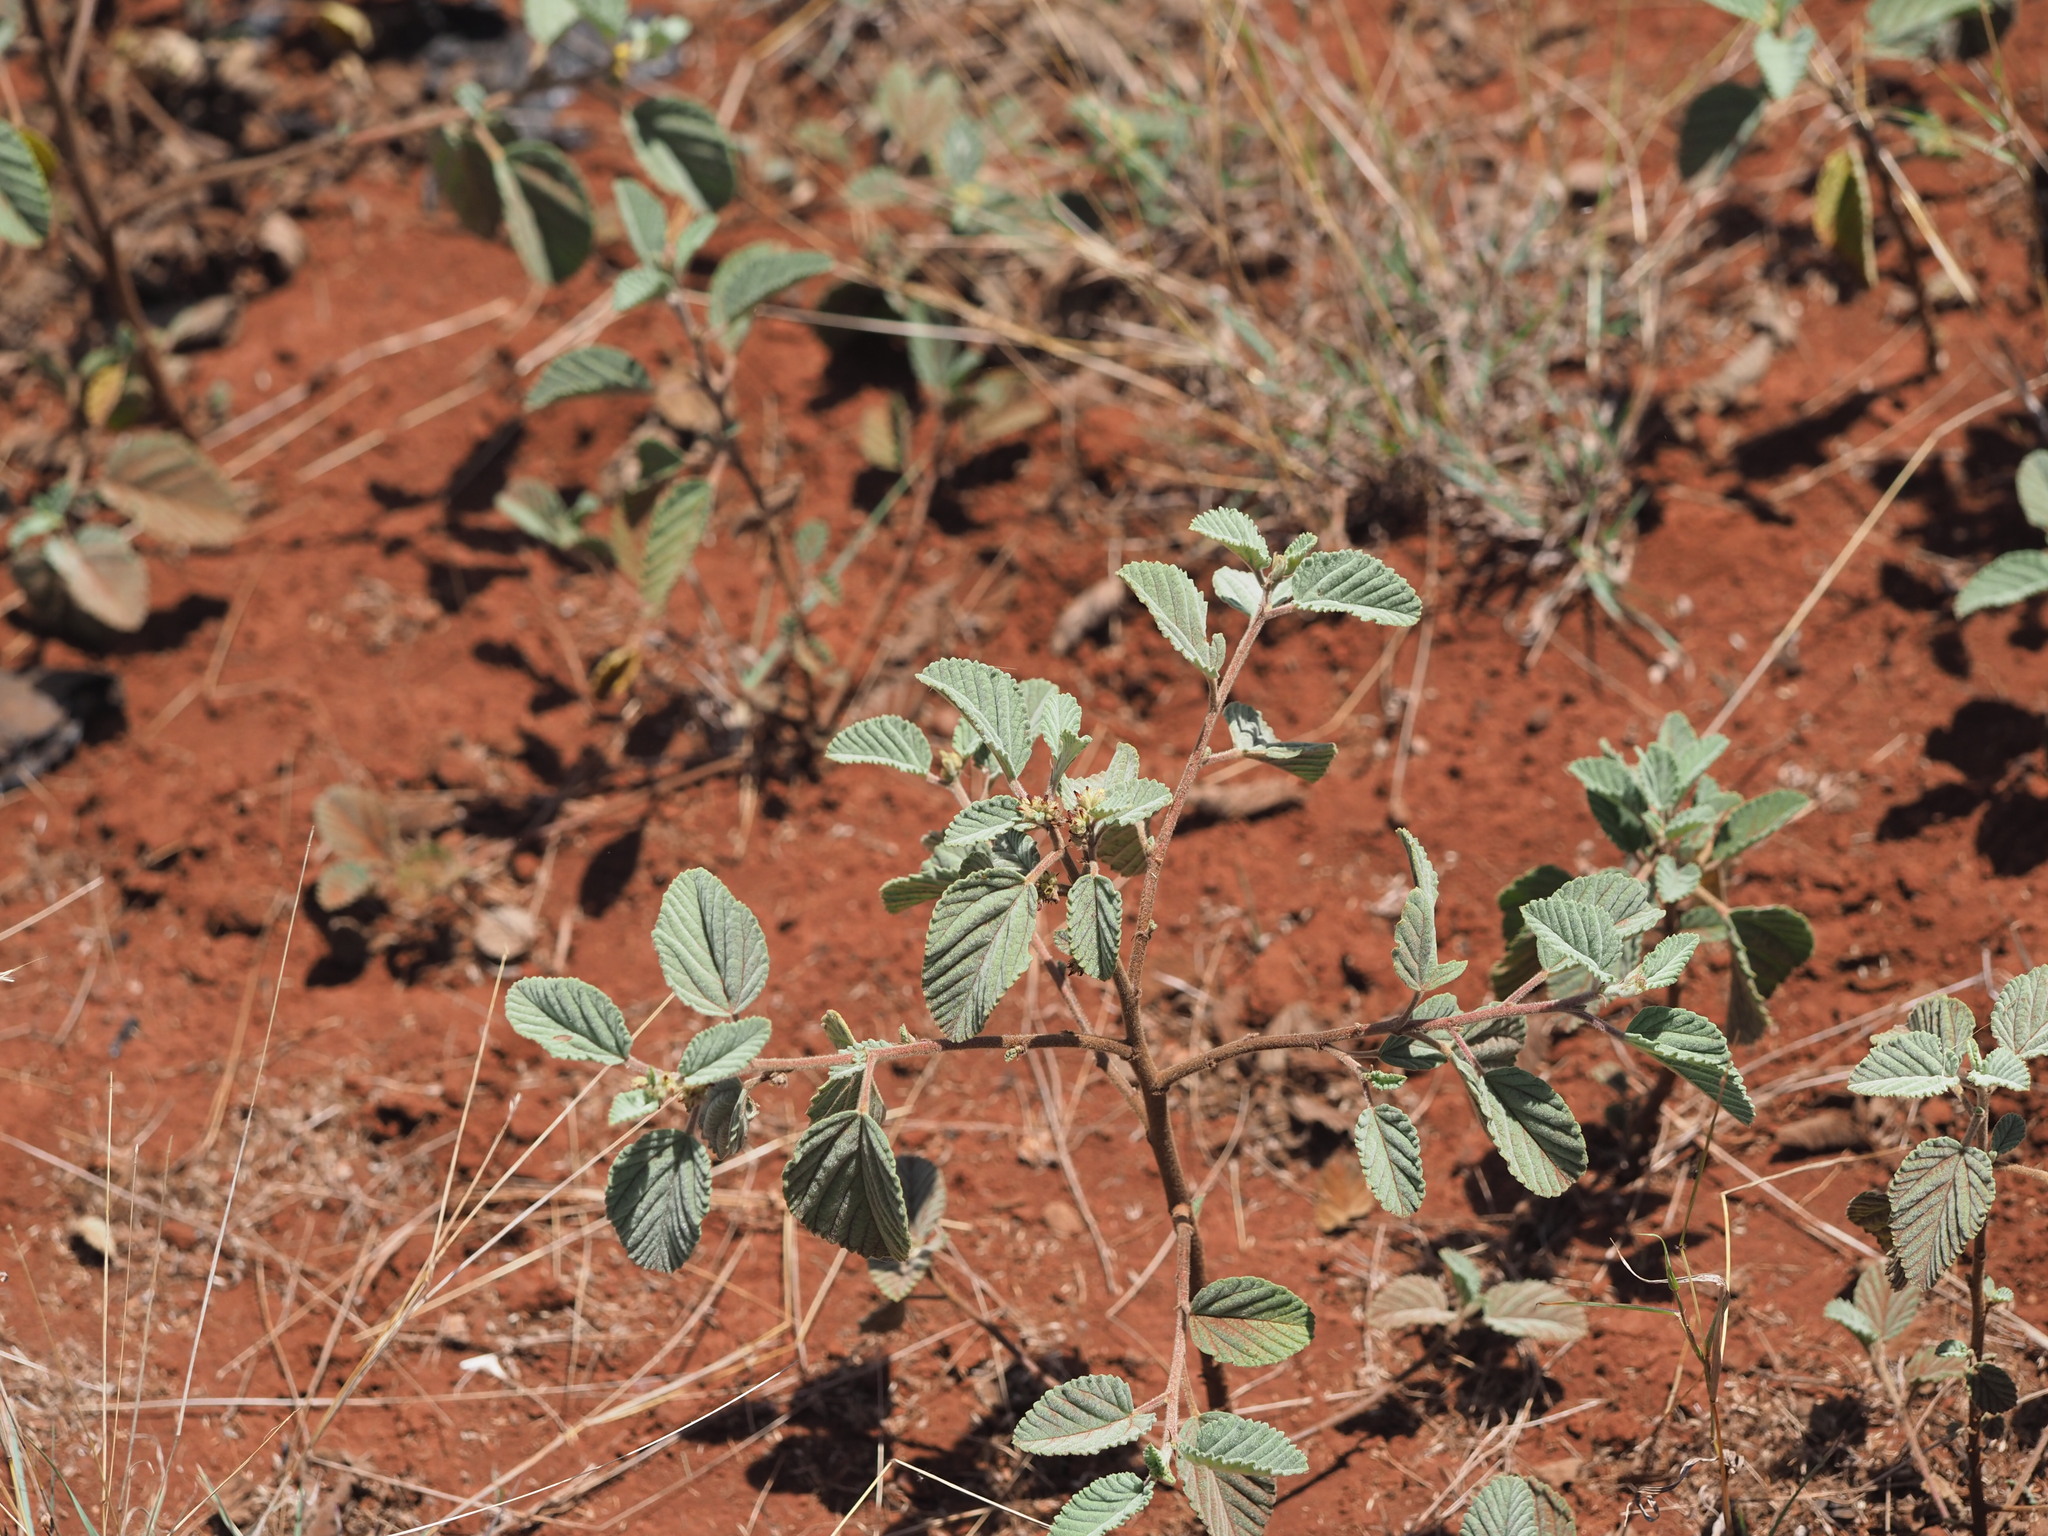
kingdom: Plantae
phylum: Tracheophyta
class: Magnoliopsida
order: Malvales
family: Malvaceae
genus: Waltheria
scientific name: Waltheria indica
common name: Leather-coat
